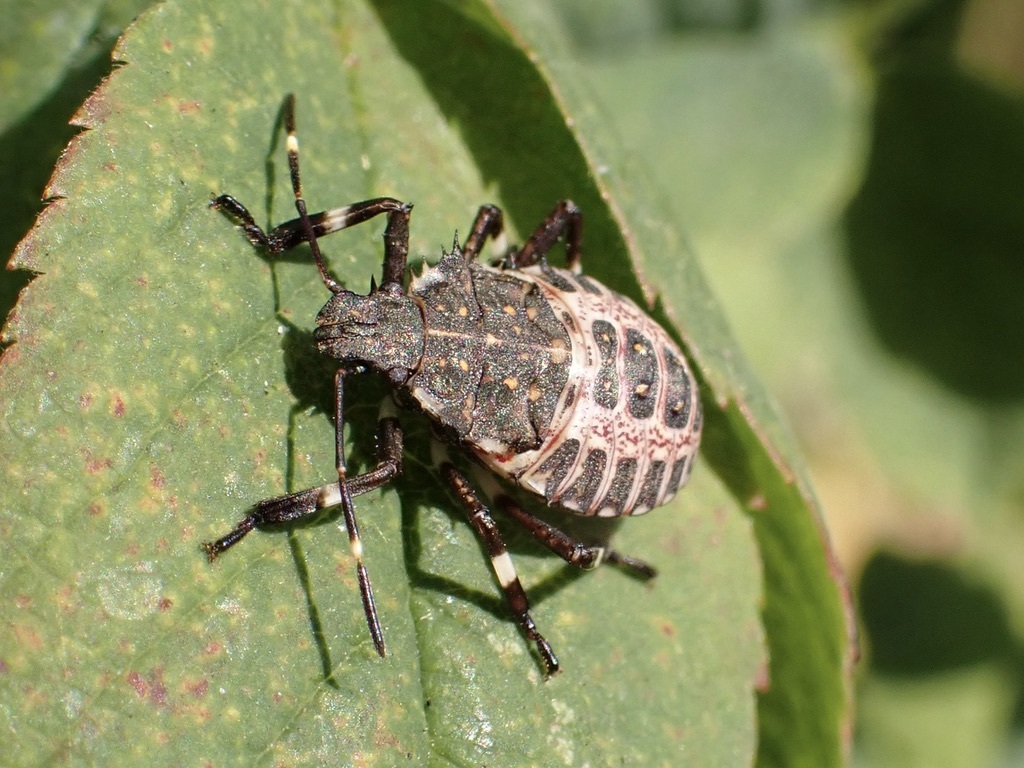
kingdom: Animalia
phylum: Arthropoda
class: Insecta
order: Hemiptera
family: Pentatomidae
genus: Halyomorpha
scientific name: Halyomorpha halys
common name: Brown marmorated stink bug
